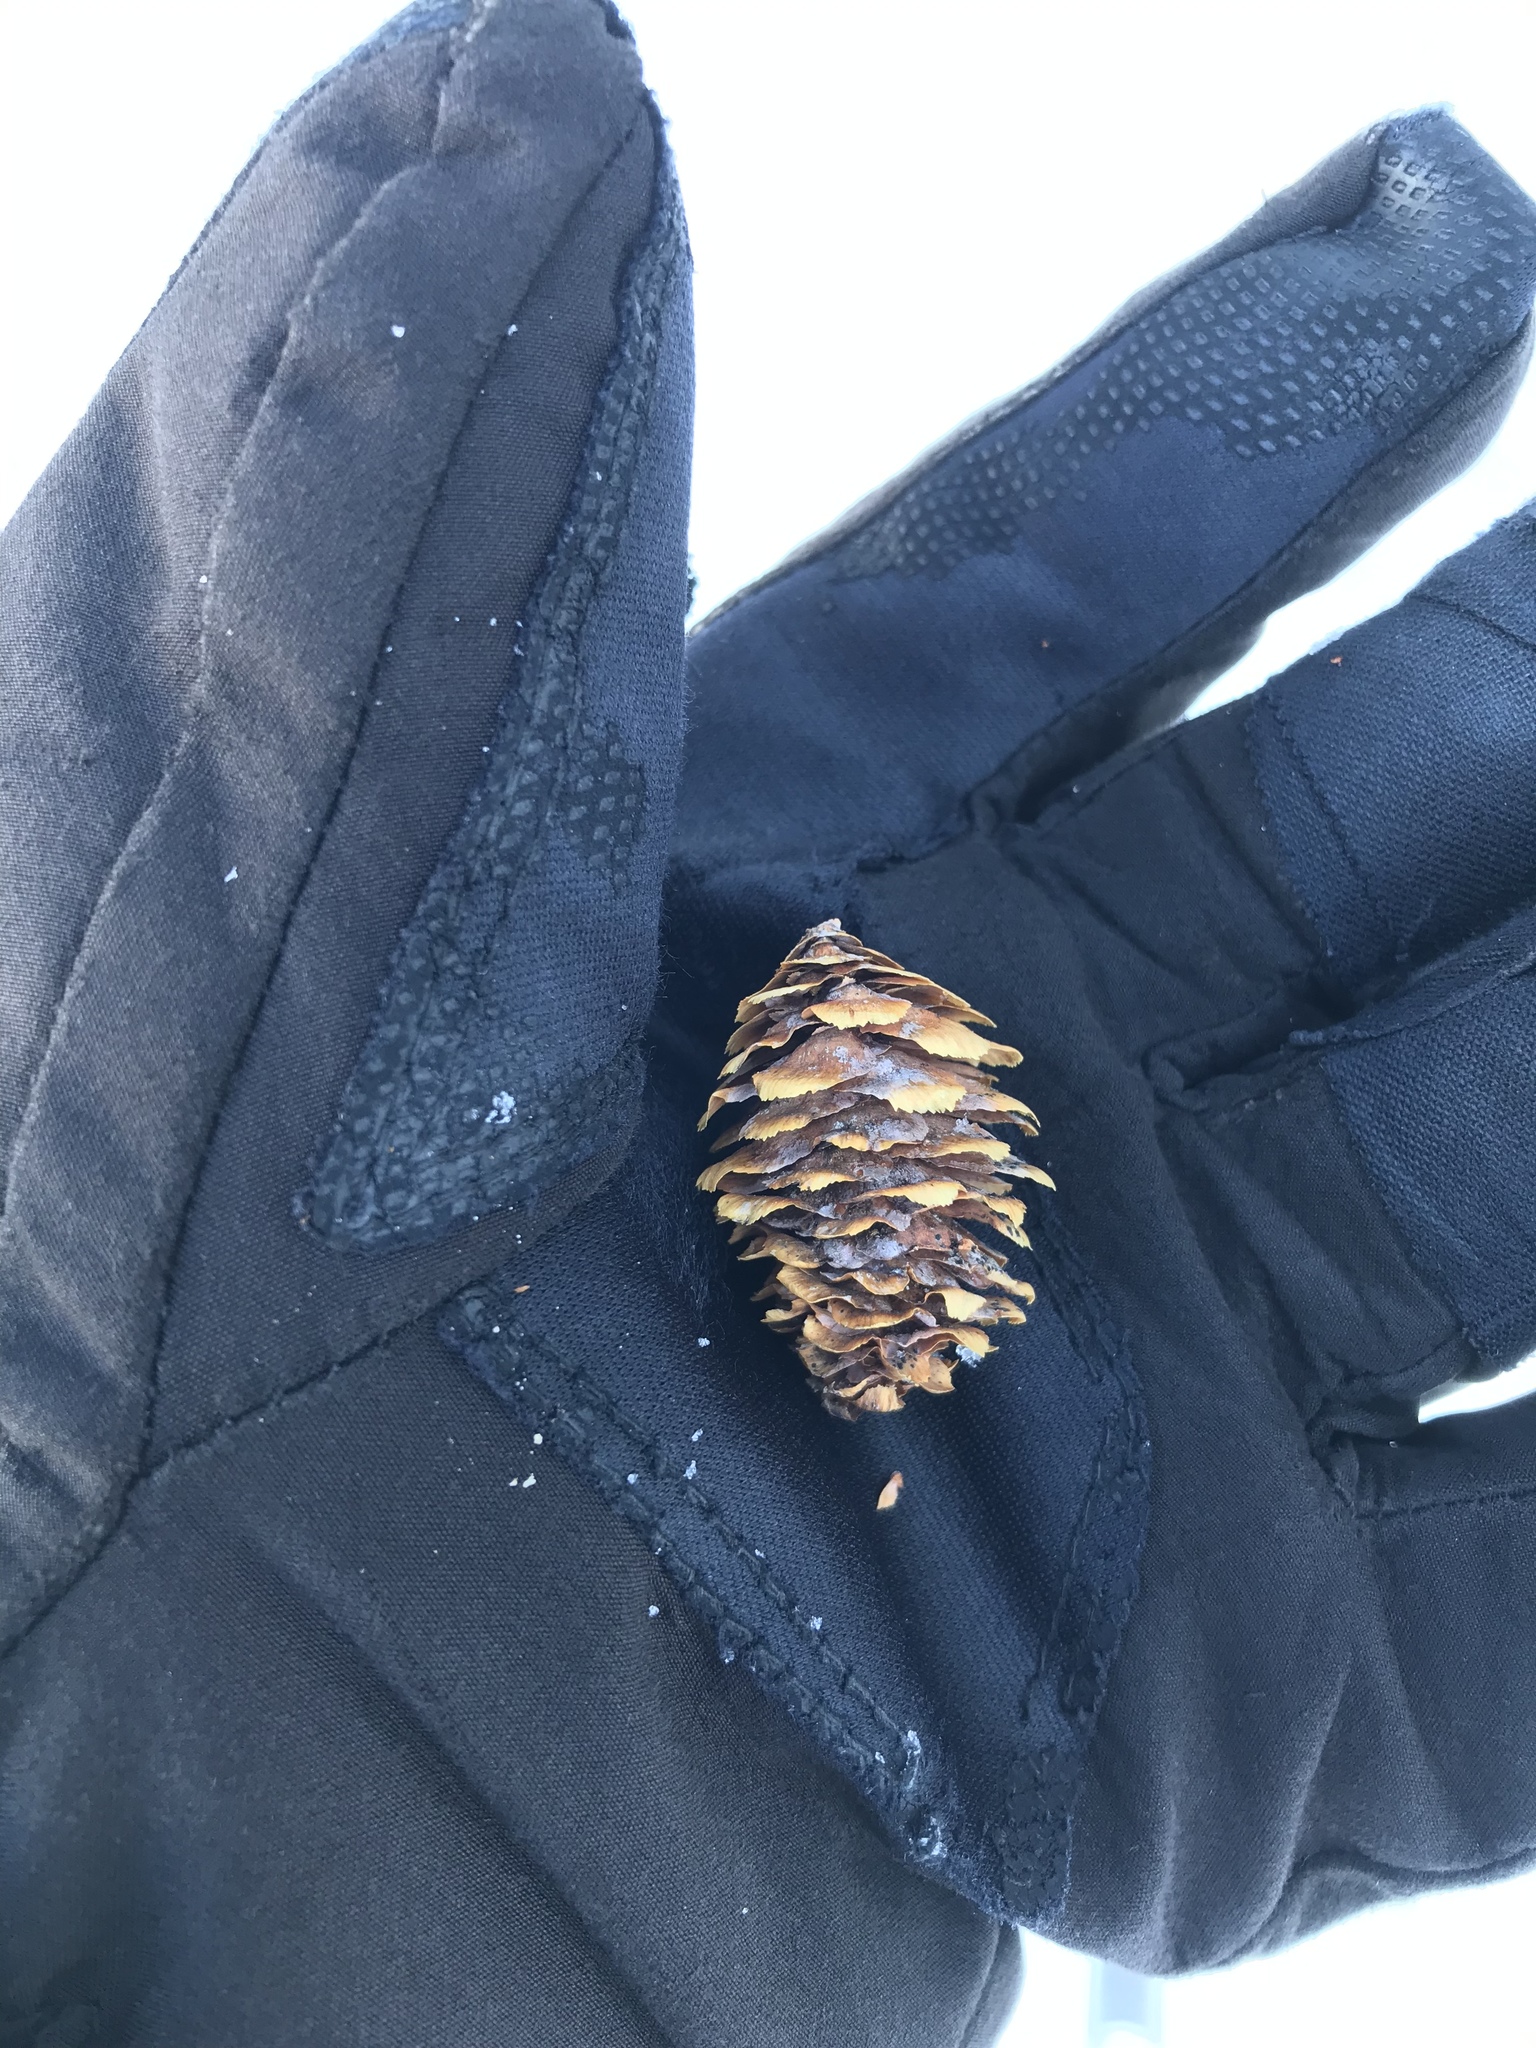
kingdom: Plantae
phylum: Tracheophyta
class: Pinopsida
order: Pinales
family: Pinaceae
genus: Picea
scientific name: Picea engelmannii
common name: Engelmann spruce
